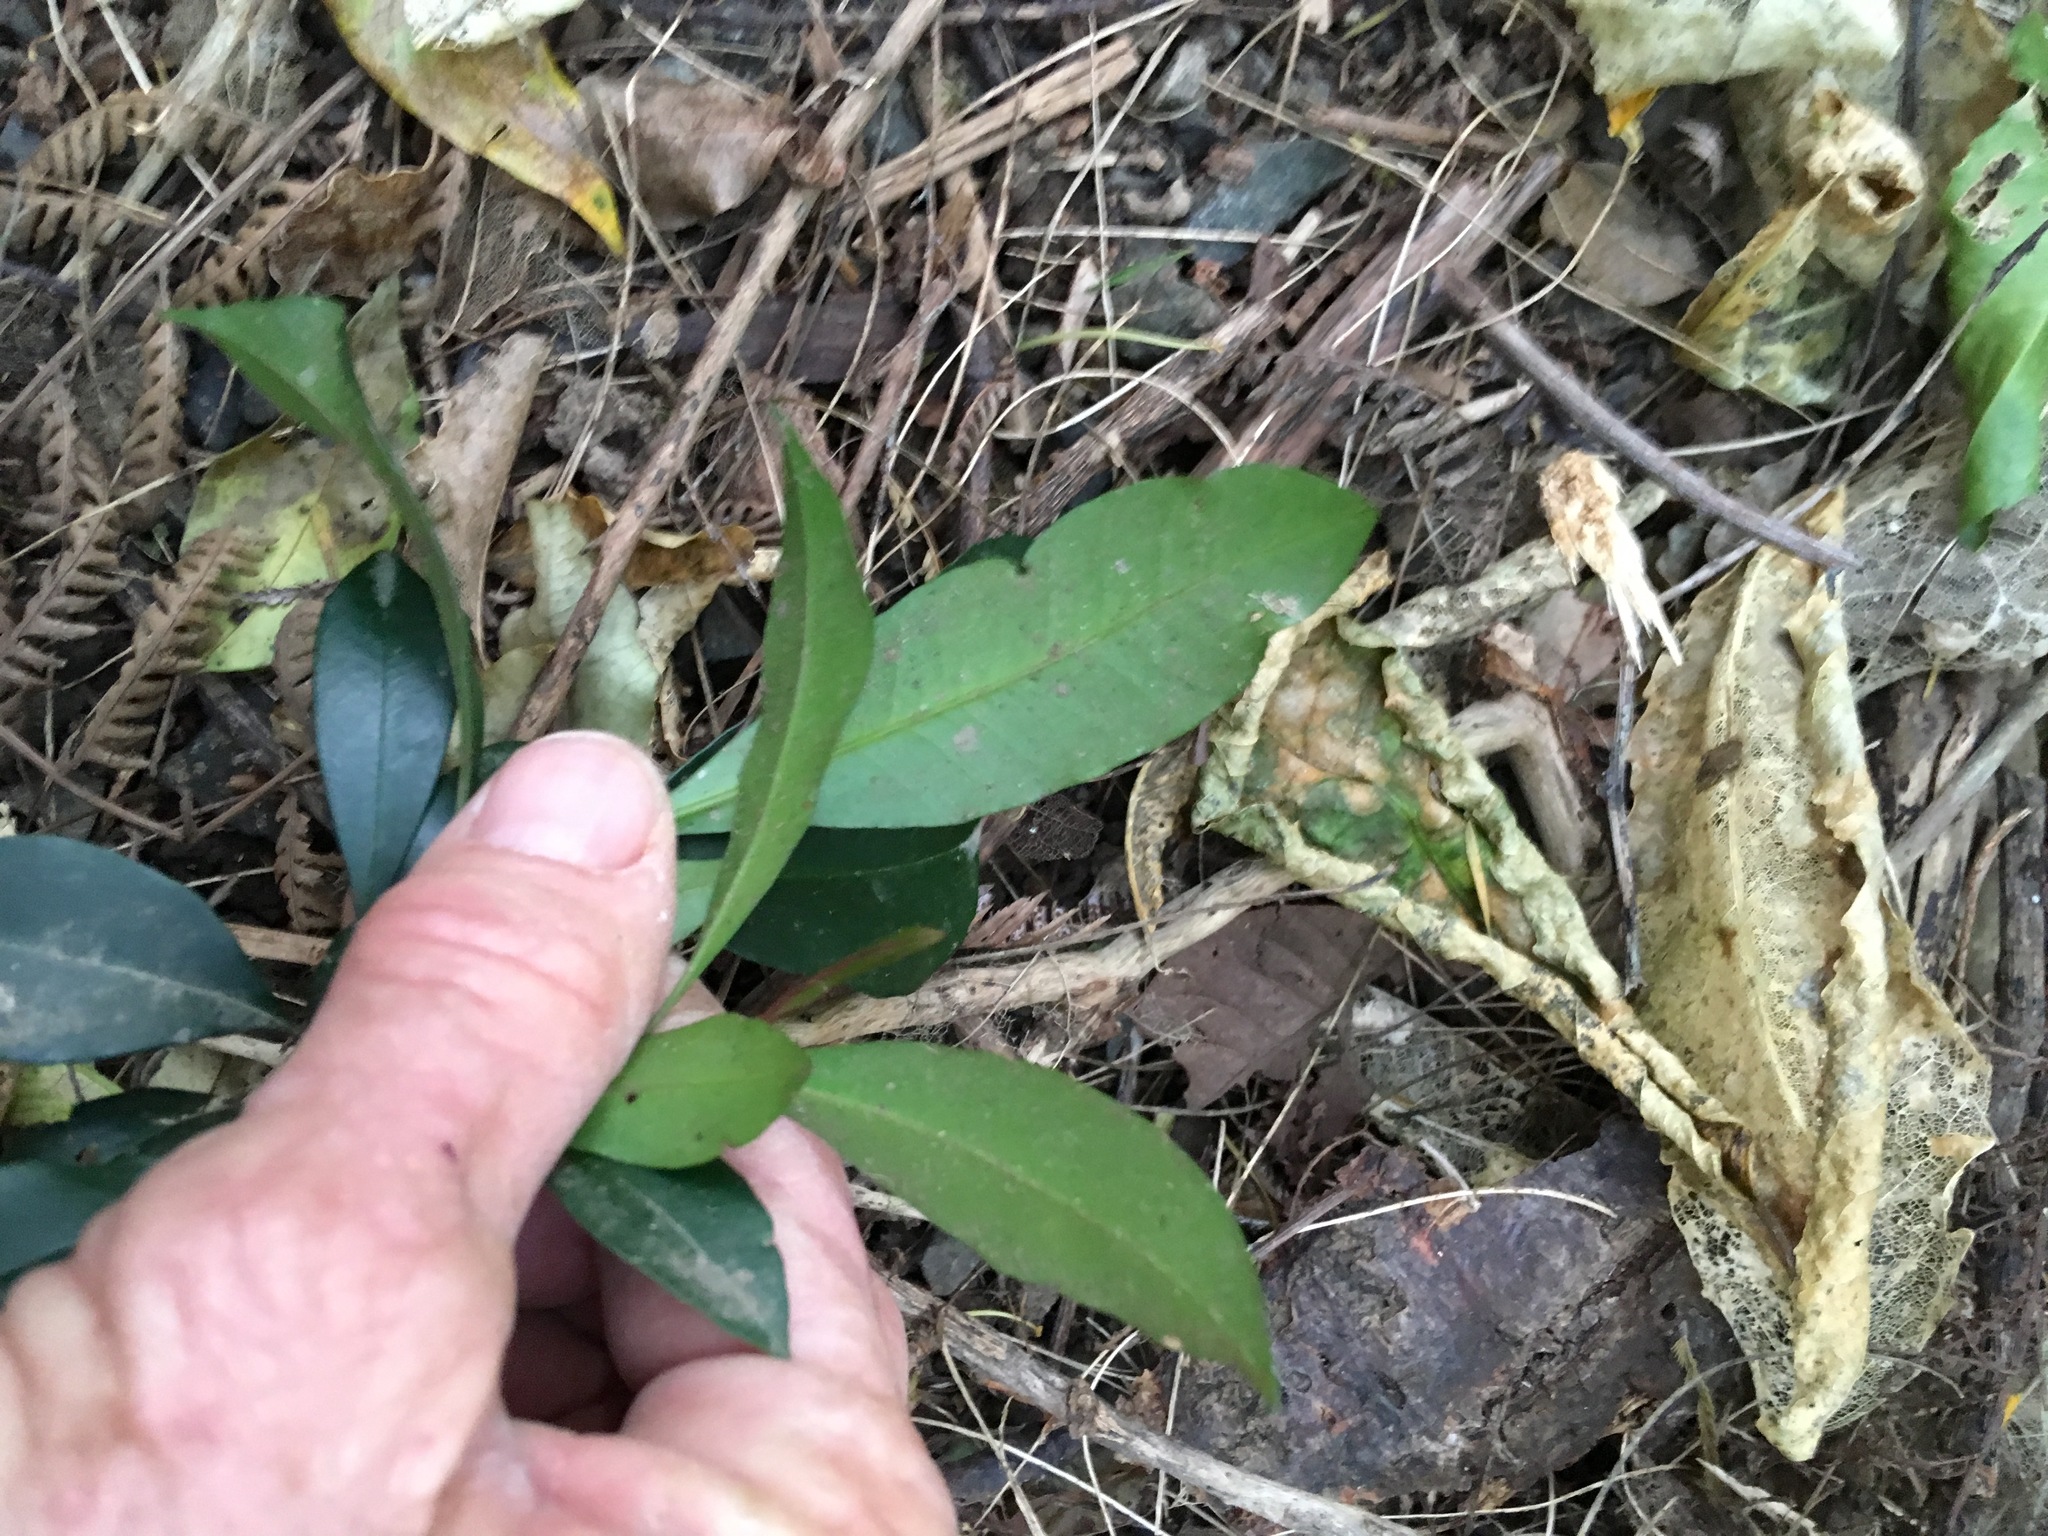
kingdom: Plantae
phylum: Tracheophyta
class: Magnoliopsida
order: Myrtales
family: Myrtaceae
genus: Syzygium
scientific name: Syzygium smithii
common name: Lilly-pilly
